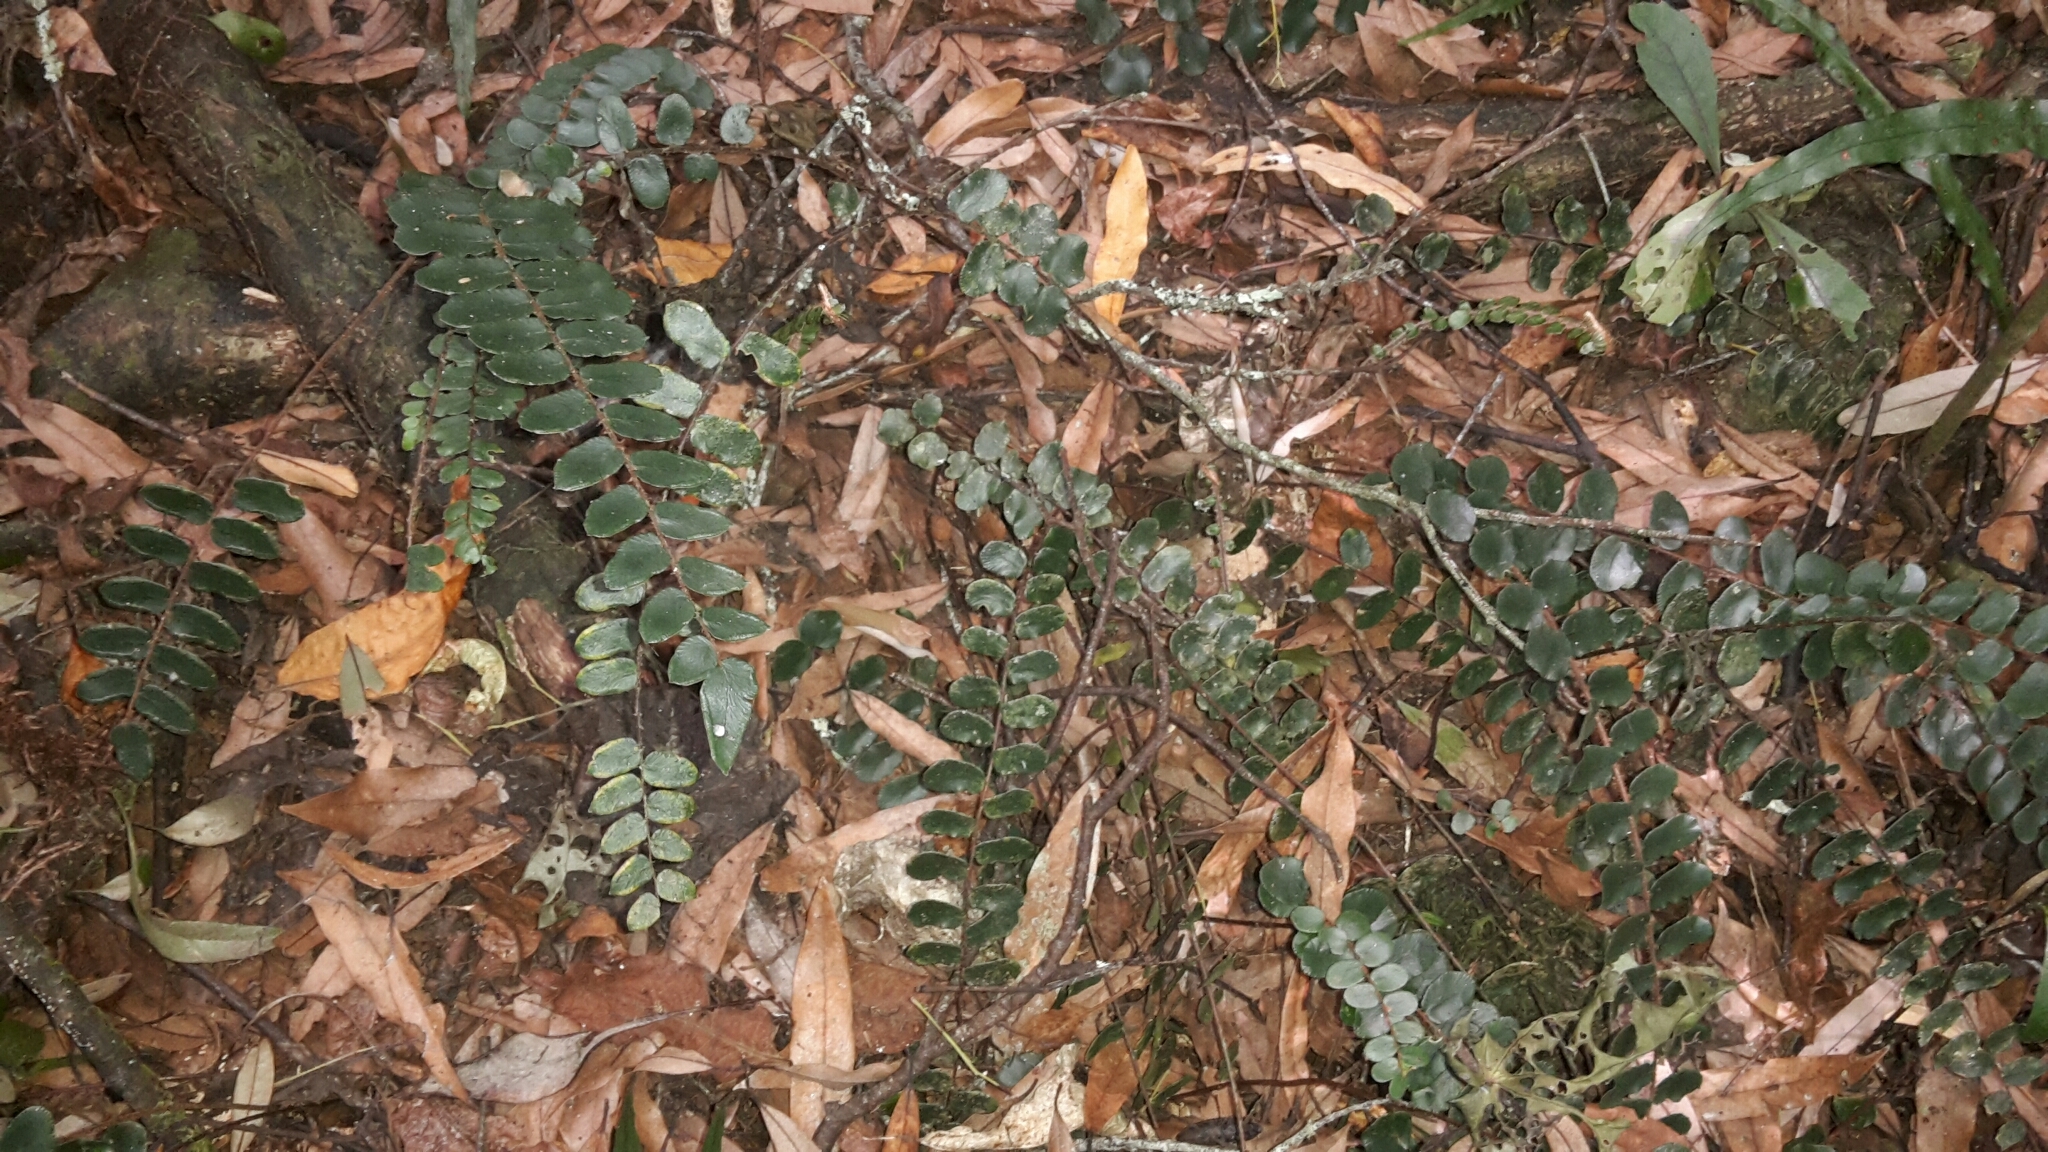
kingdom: Plantae
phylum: Tracheophyta
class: Polypodiopsida
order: Polypodiales
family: Pteridaceae
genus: Pellaea
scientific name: Pellaea rotundifolia
